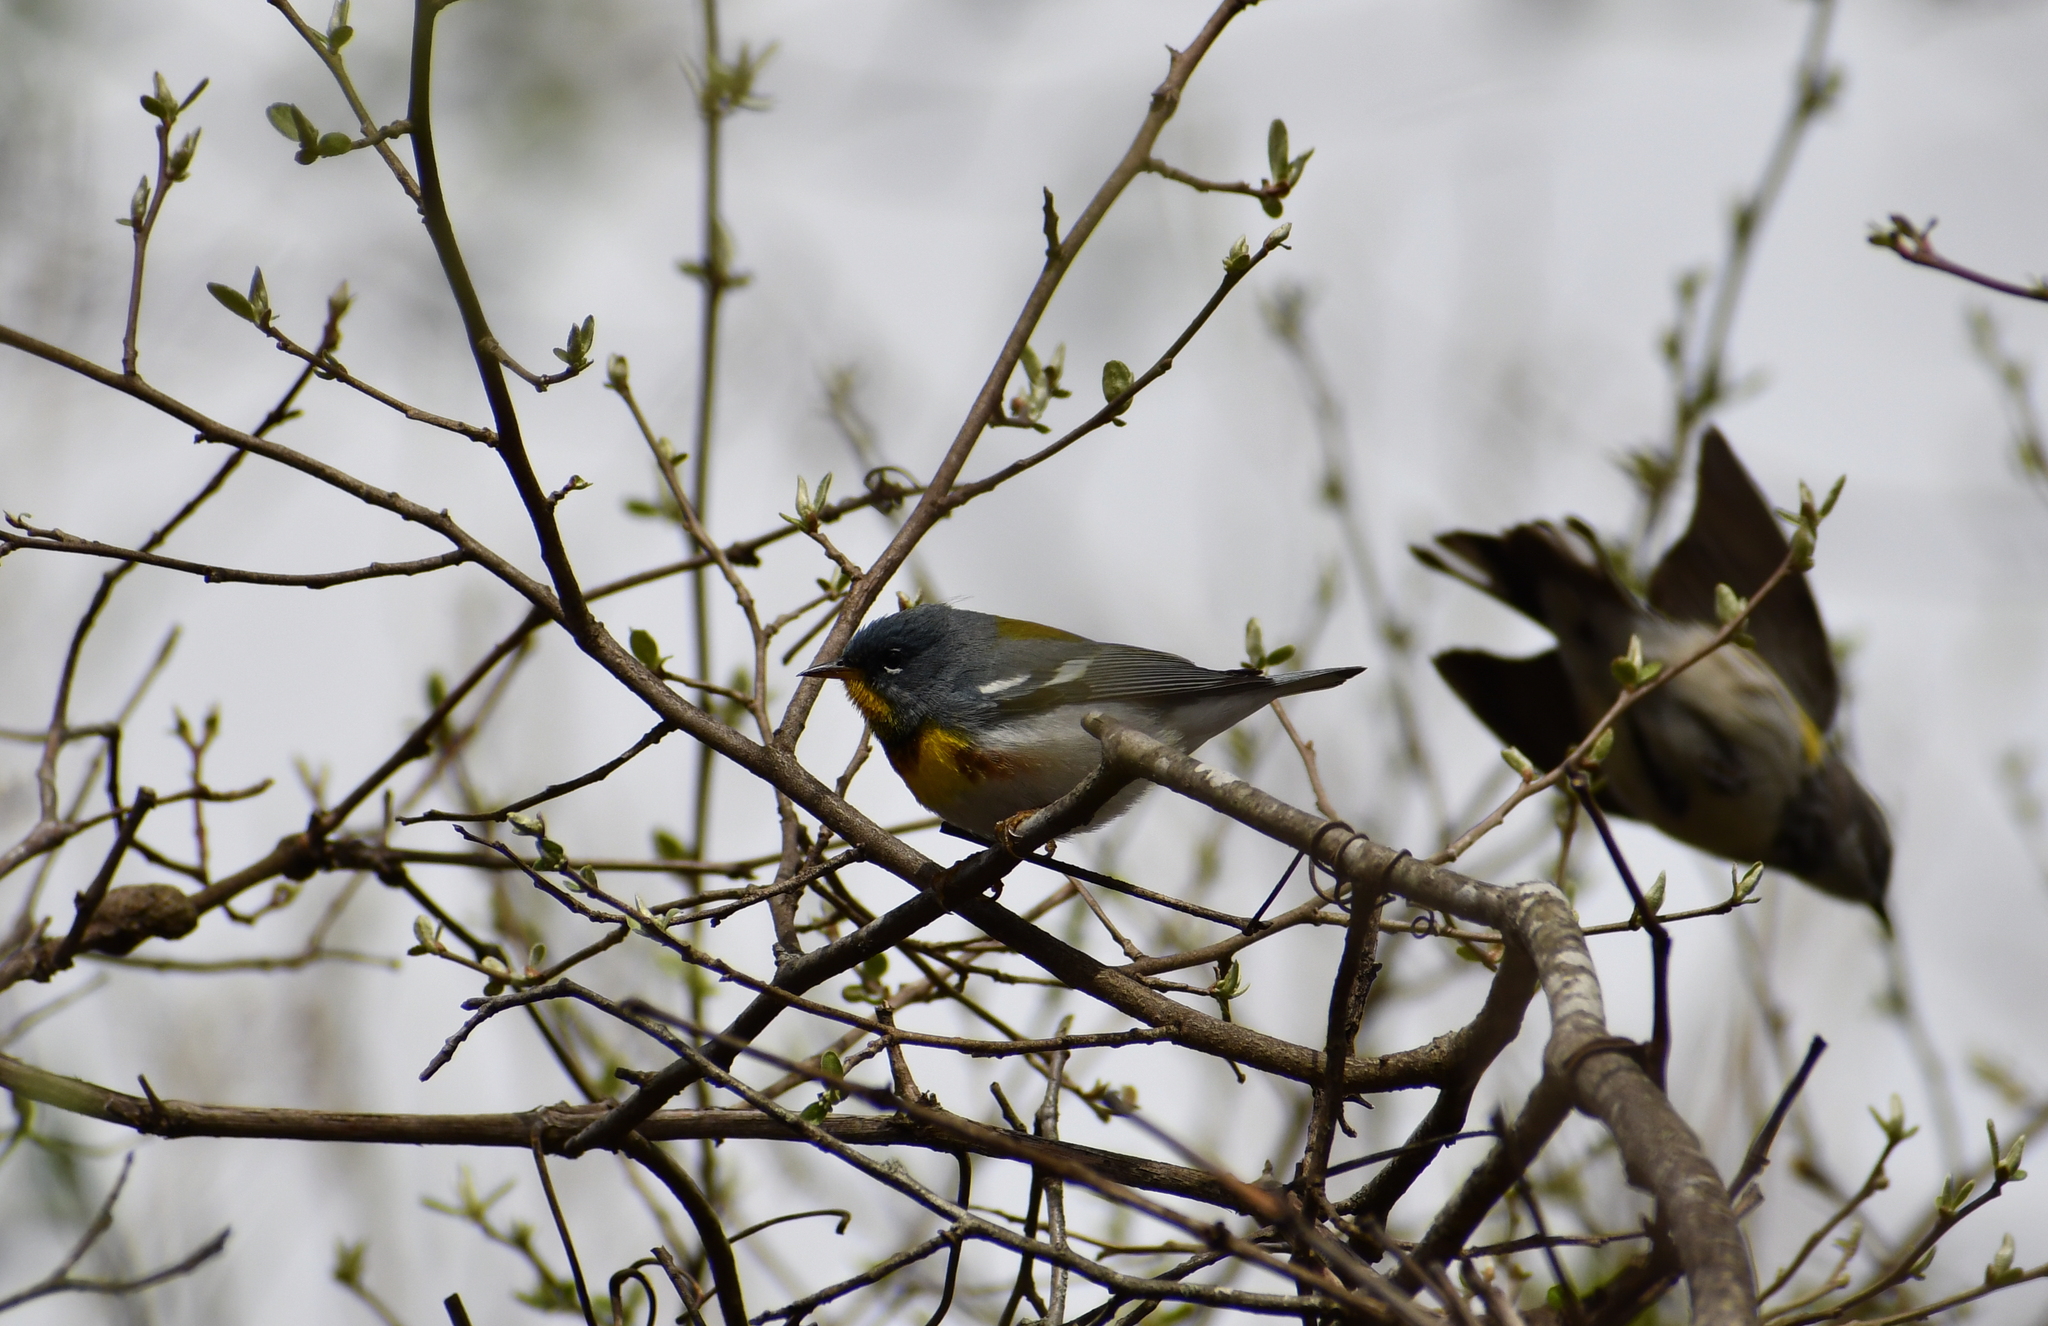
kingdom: Animalia
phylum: Chordata
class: Aves
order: Passeriformes
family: Parulidae
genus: Setophaga
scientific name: Setophaga americana
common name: Northern parula
